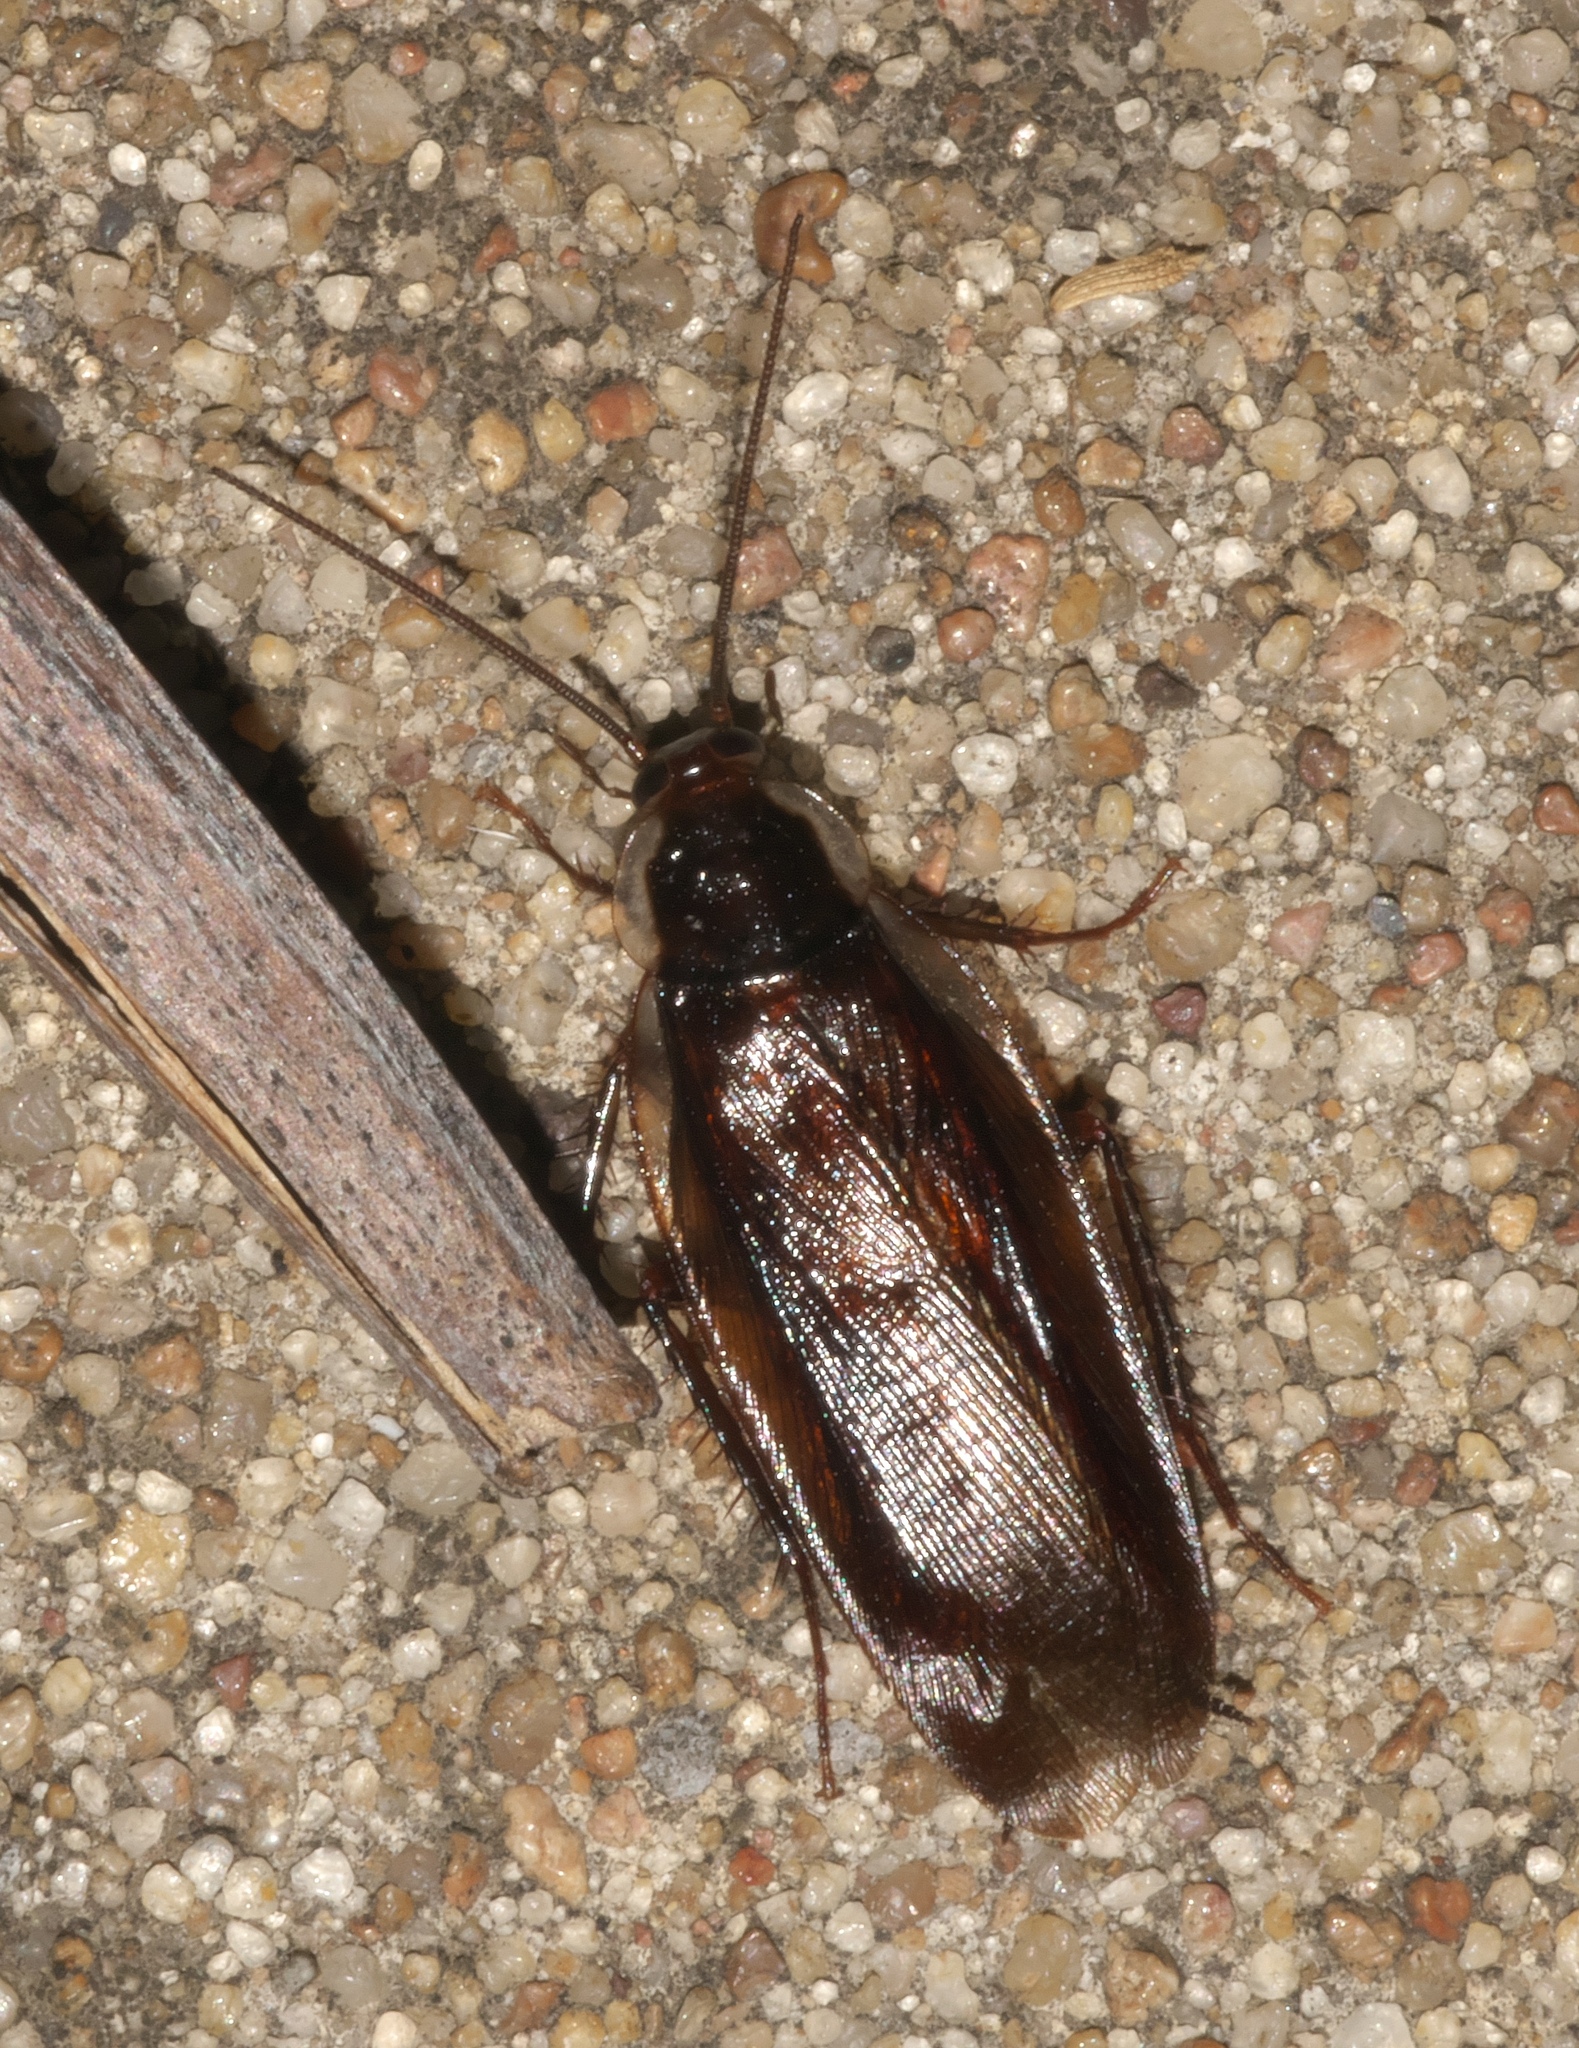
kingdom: Animalia
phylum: Arthropoda
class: Insecta
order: Blattodea
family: Ectobiidae
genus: Parcoblatta
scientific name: Parcoblatta pennsylvanica
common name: Pennsylvanian wood cockroach
